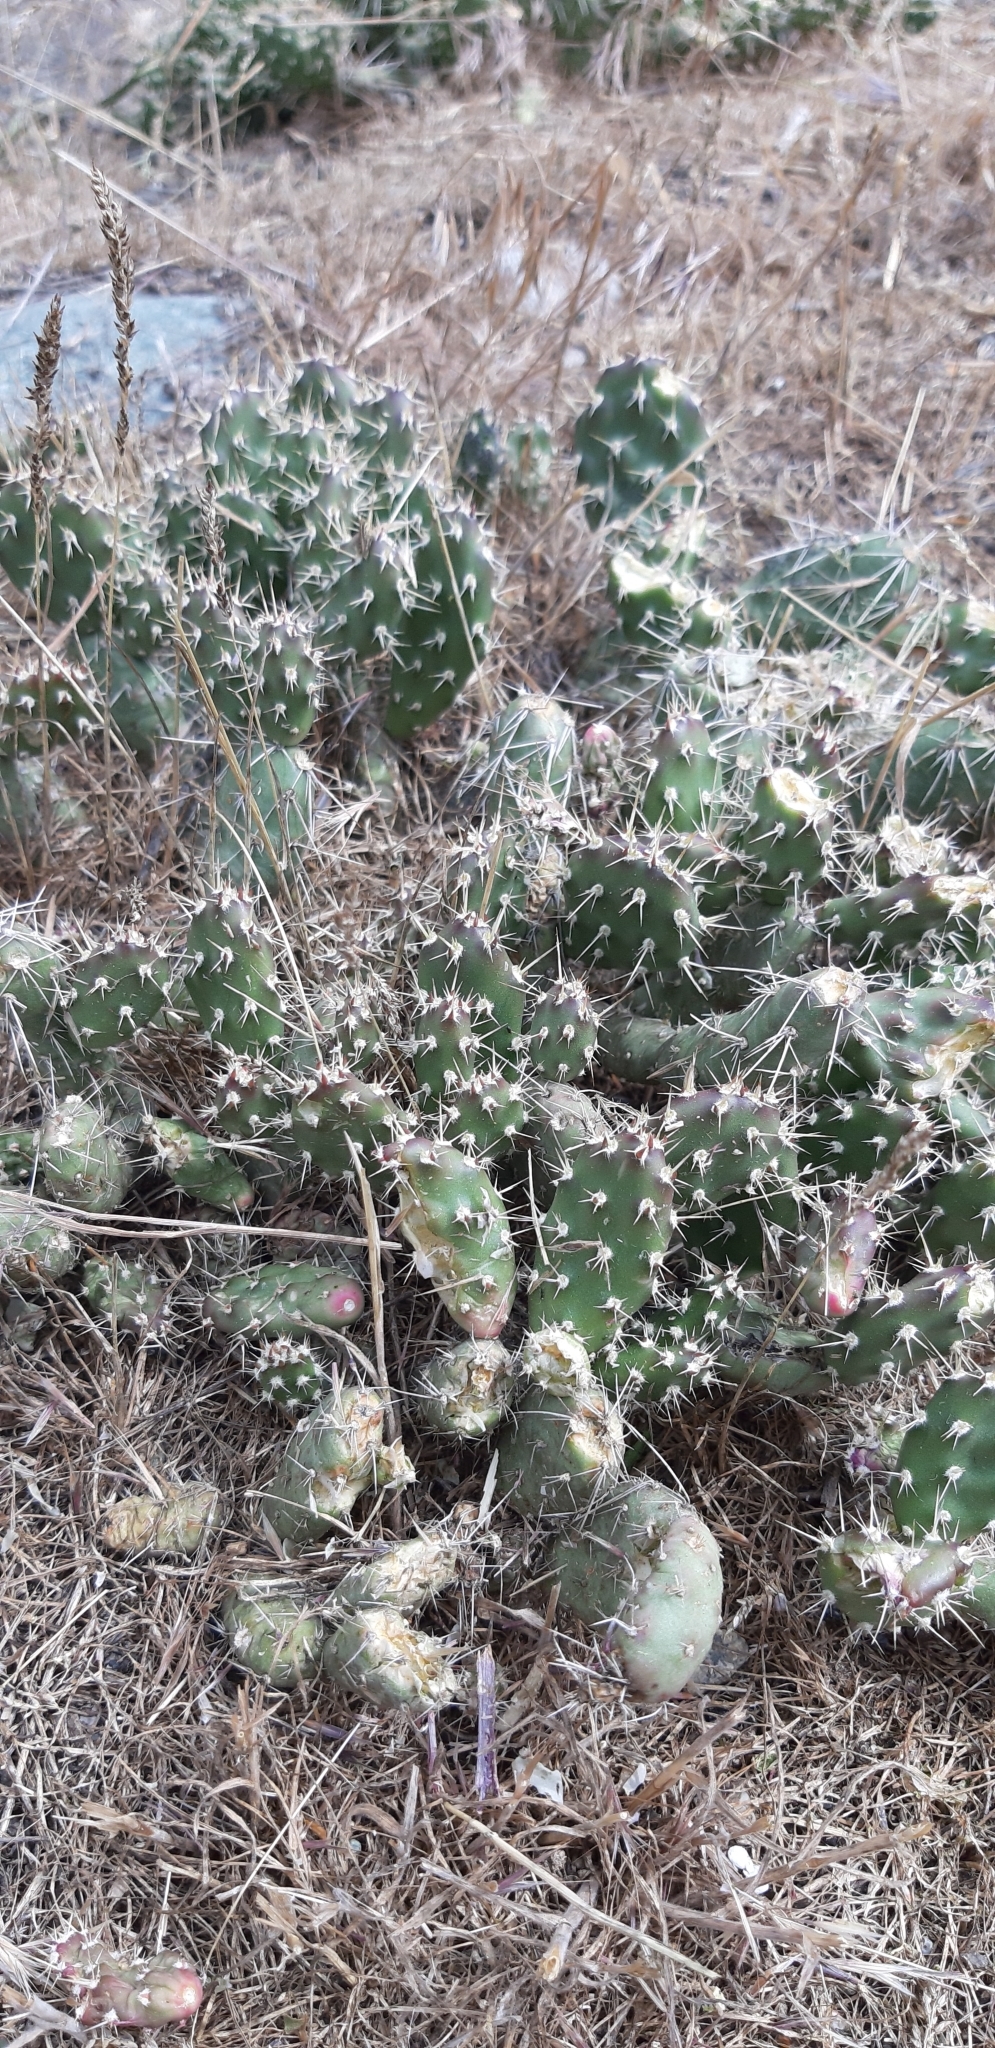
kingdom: Plantae
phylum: Tracheophyta
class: Magnoliopsida
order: Caryophyllales
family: Cactaceae
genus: Opuntia
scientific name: Opuntia fragilis
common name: Brittle cactus
